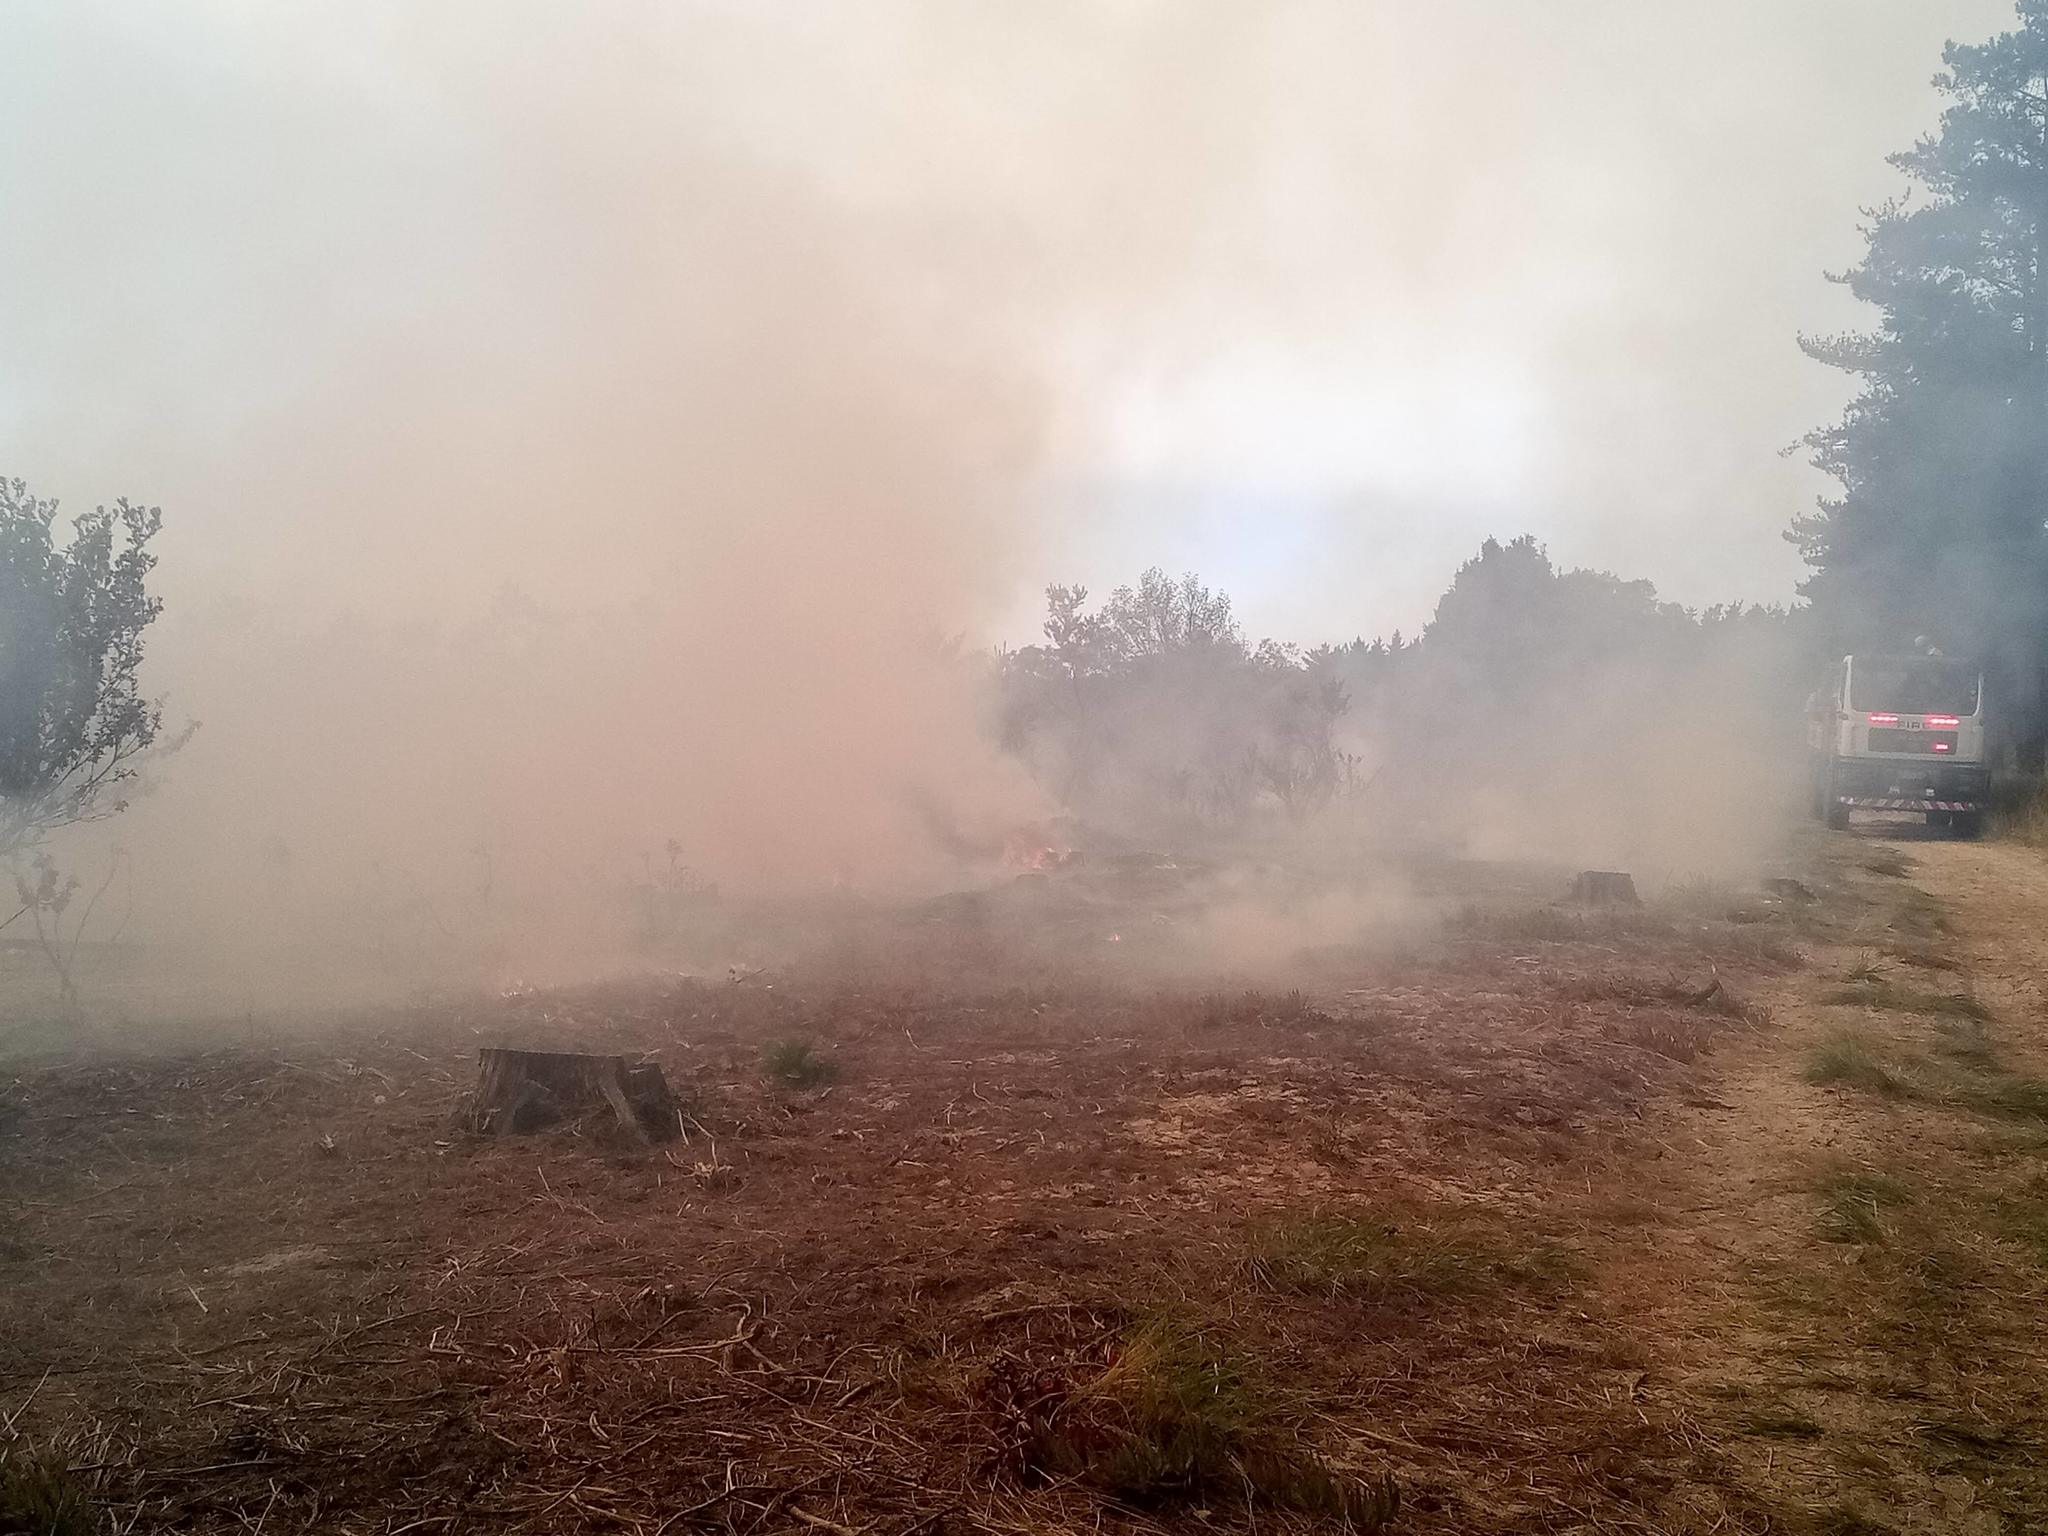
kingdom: Plantae
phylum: Tracheophyta
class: Liliopsida
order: Poales
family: Poaceae
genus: Eragrostis
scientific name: Eragrostis curvula
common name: African love-grass
